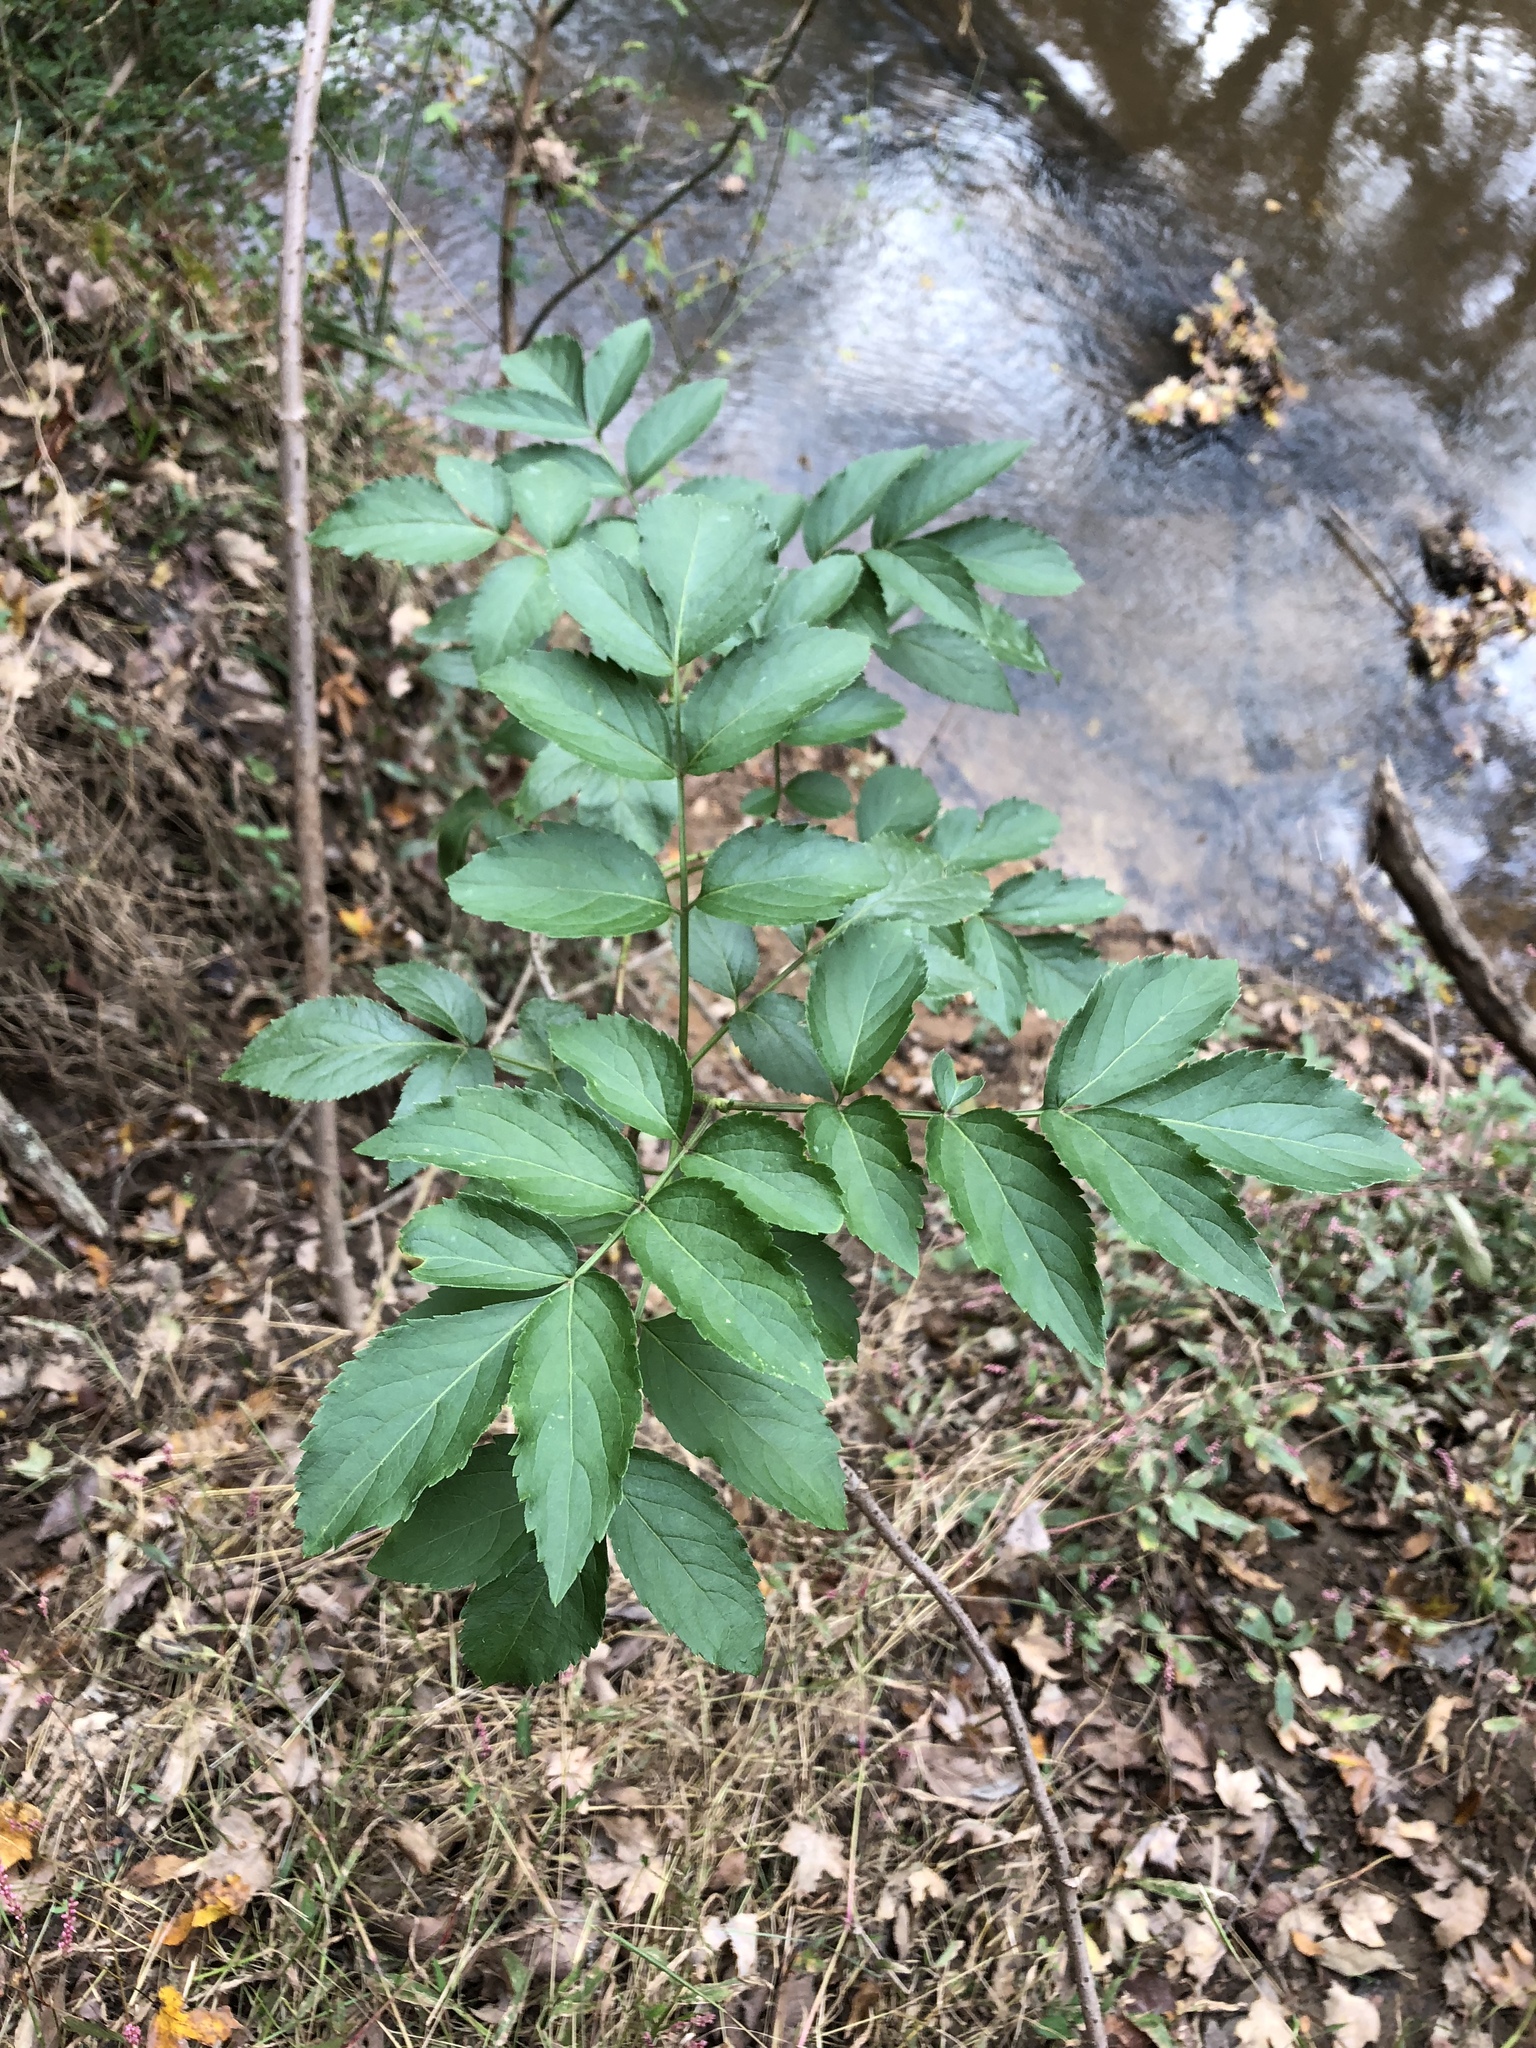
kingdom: Plantae
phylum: Tracheophyta
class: Magnoliopsida
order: Dipsacales
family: Viburnaceae
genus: Sambucus
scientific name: Sambucus canadensis
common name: American elder
